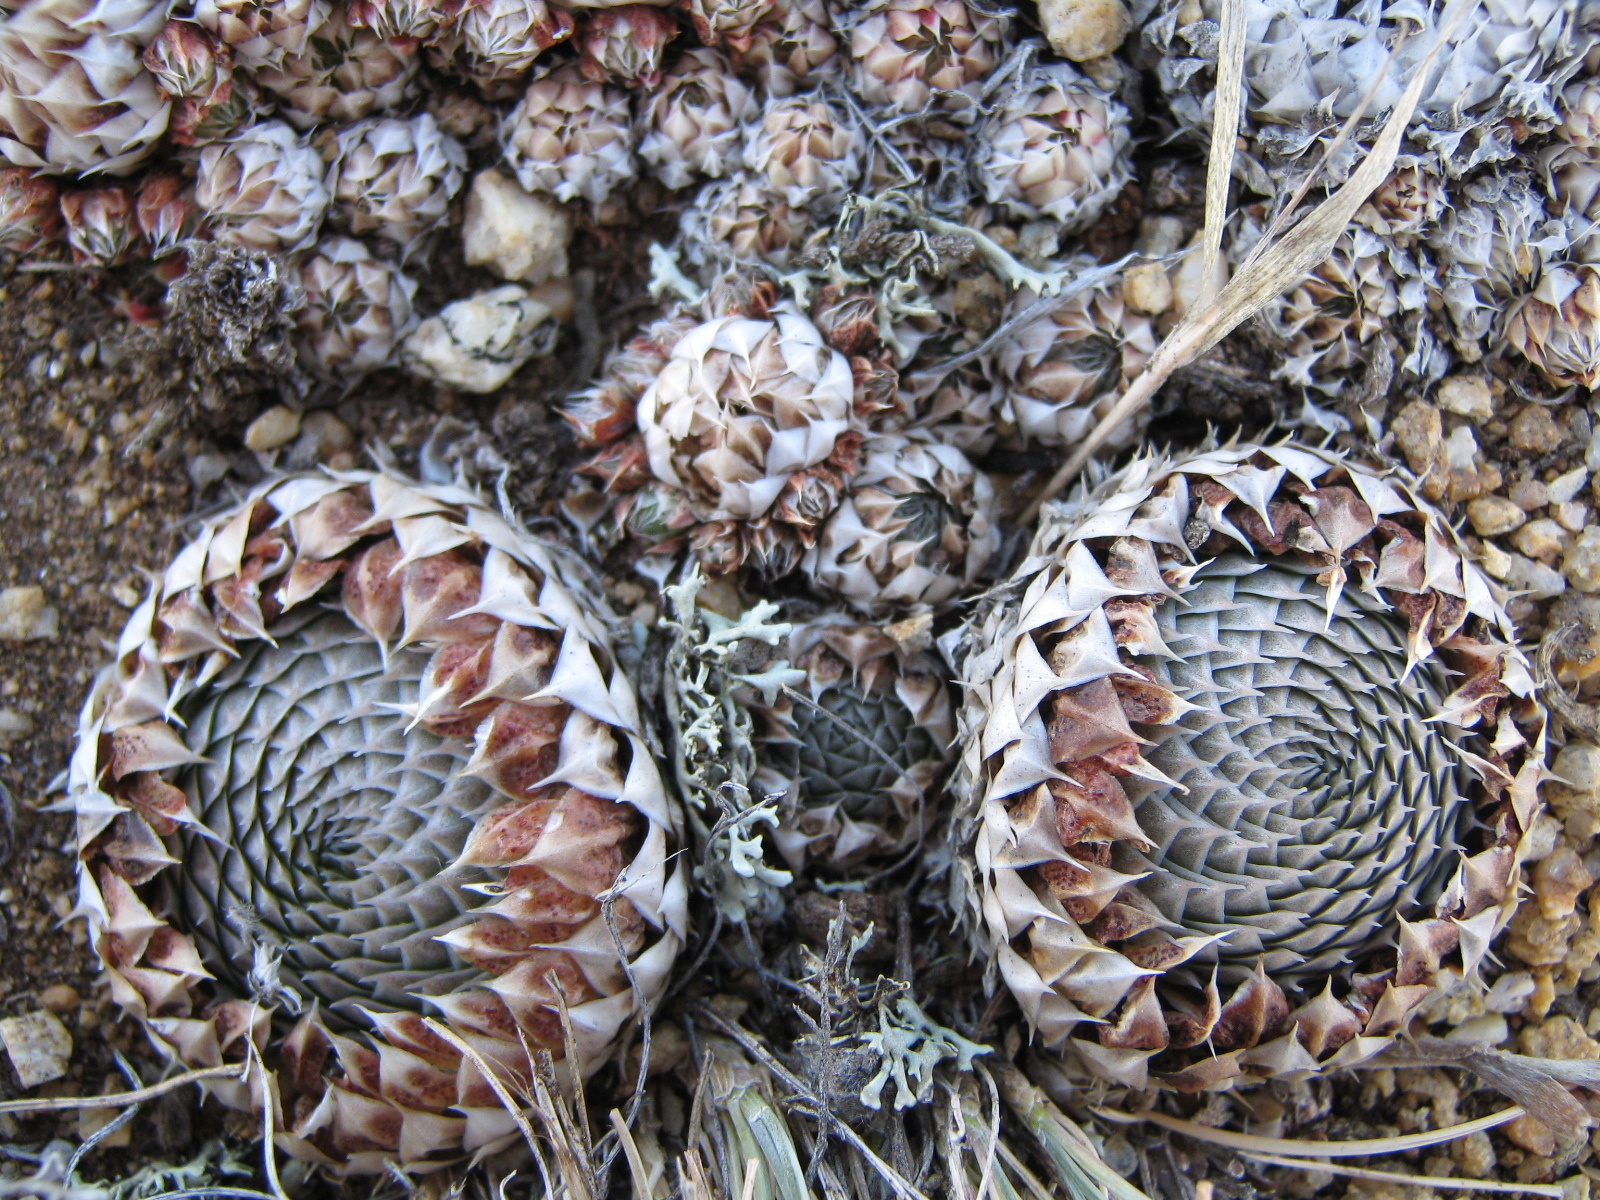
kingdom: Plantae
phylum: Tracheophyta
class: Magnoliopsida
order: Saxifragales
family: Crassulaceae
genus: Orostachys
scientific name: Orostachys spinosa
